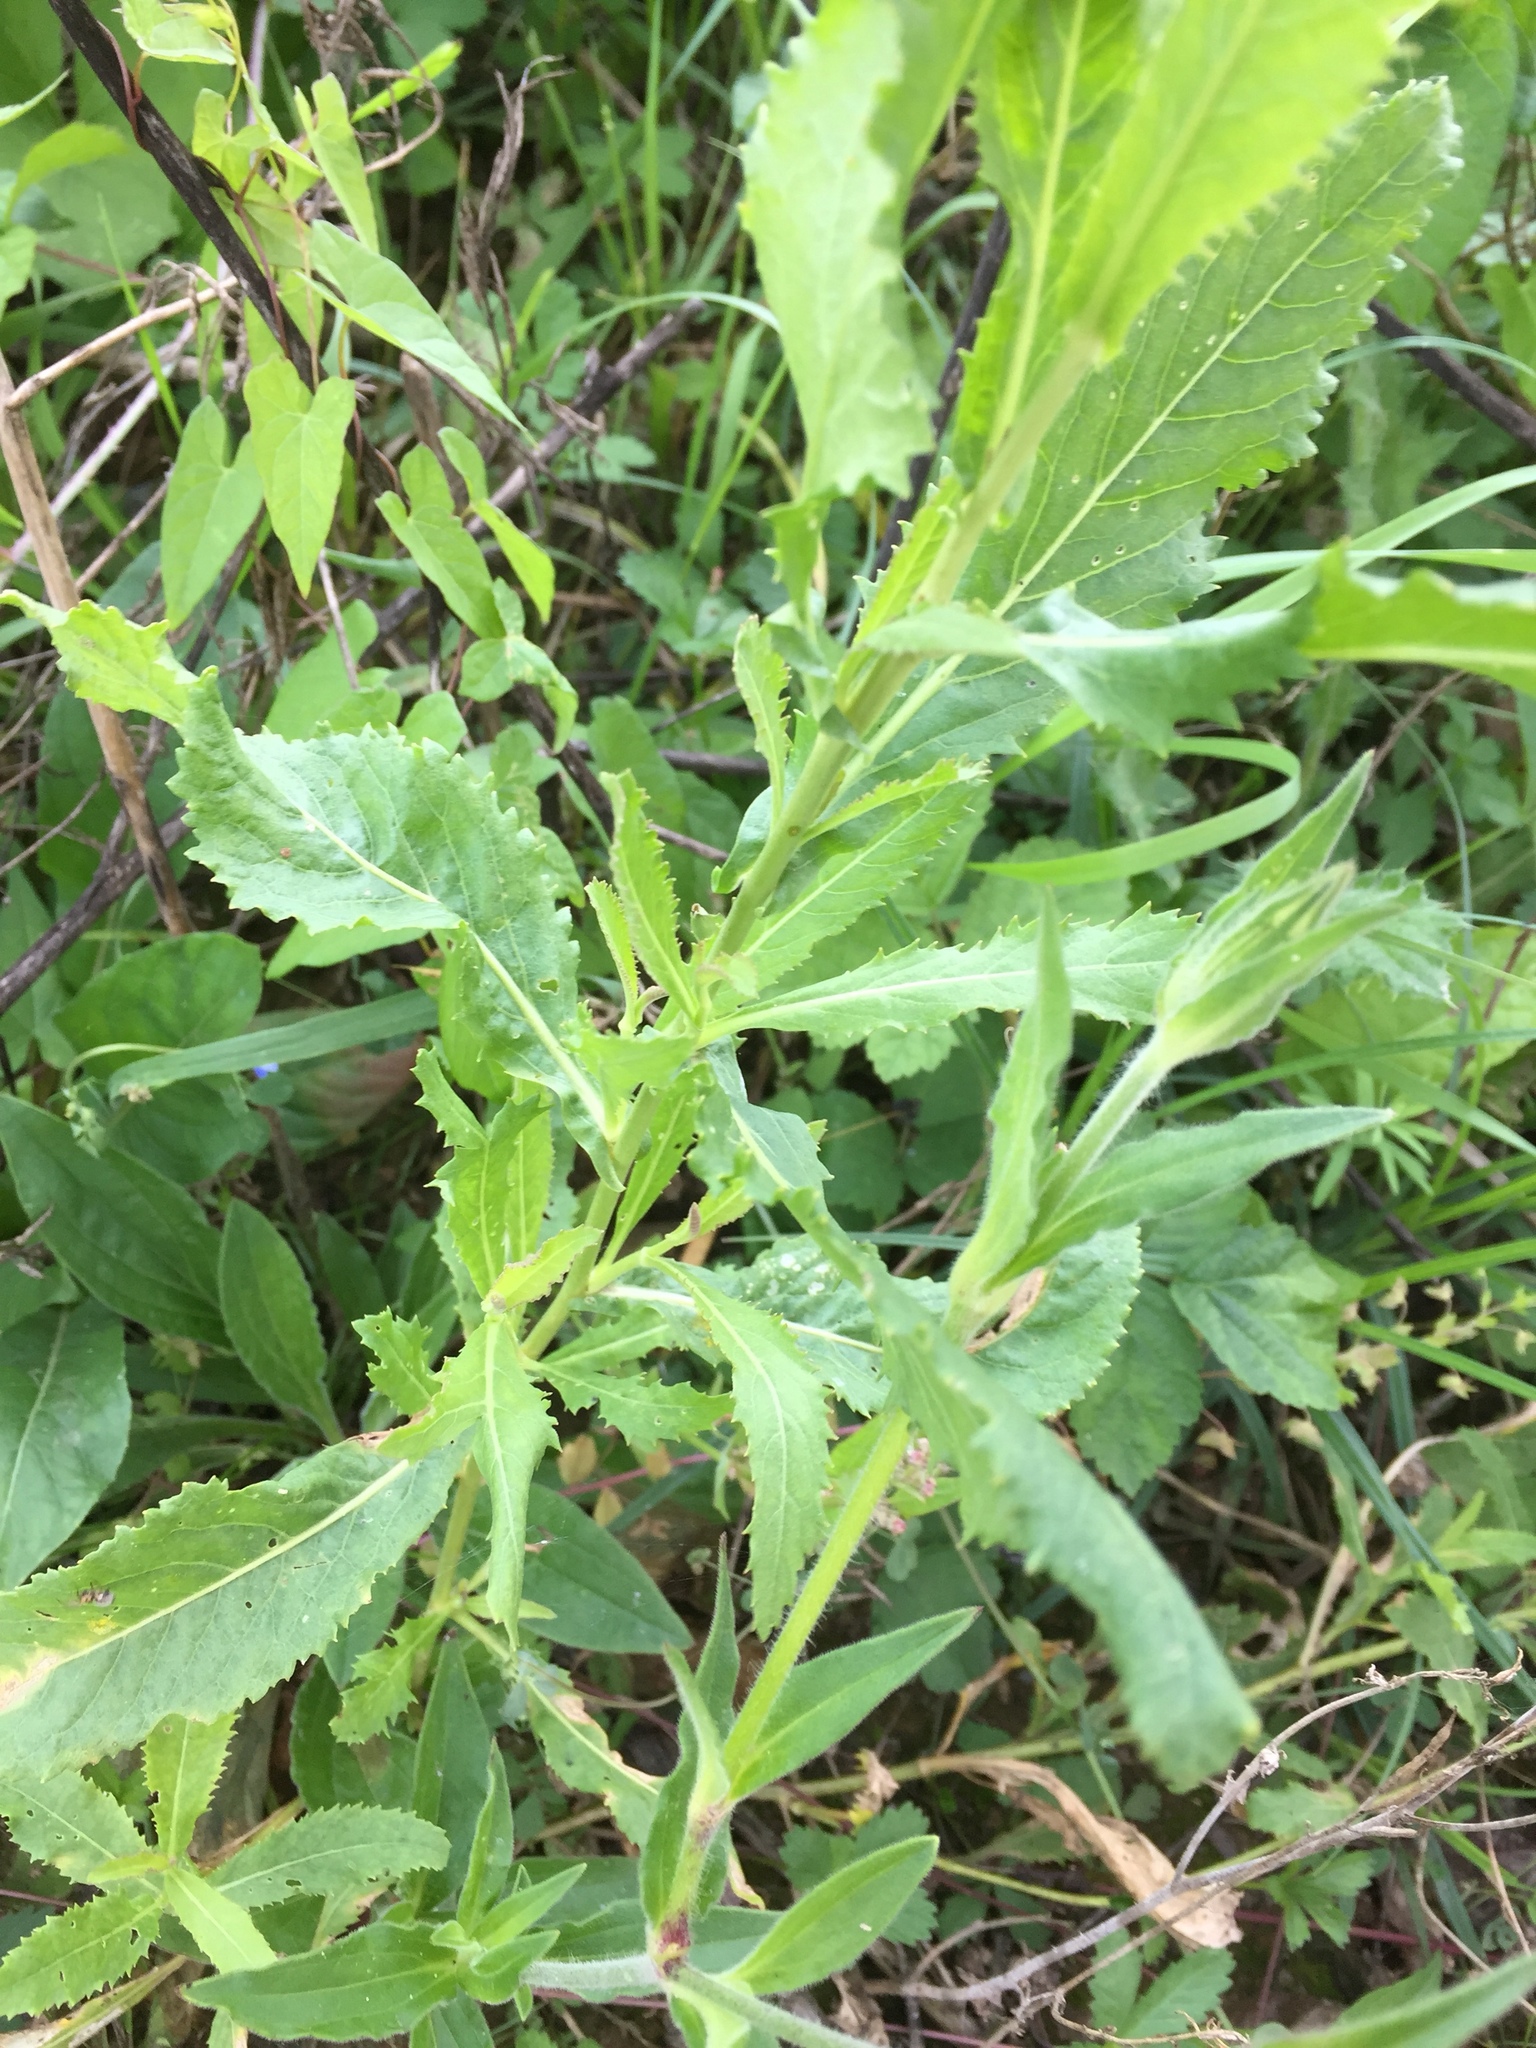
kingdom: Plantae
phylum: Tracheophyta
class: Magnoliopsida
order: Brassicales
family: Brassicaceae
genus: Rorippa
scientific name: Rorippa austriaca
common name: Austrian yellow-cress
